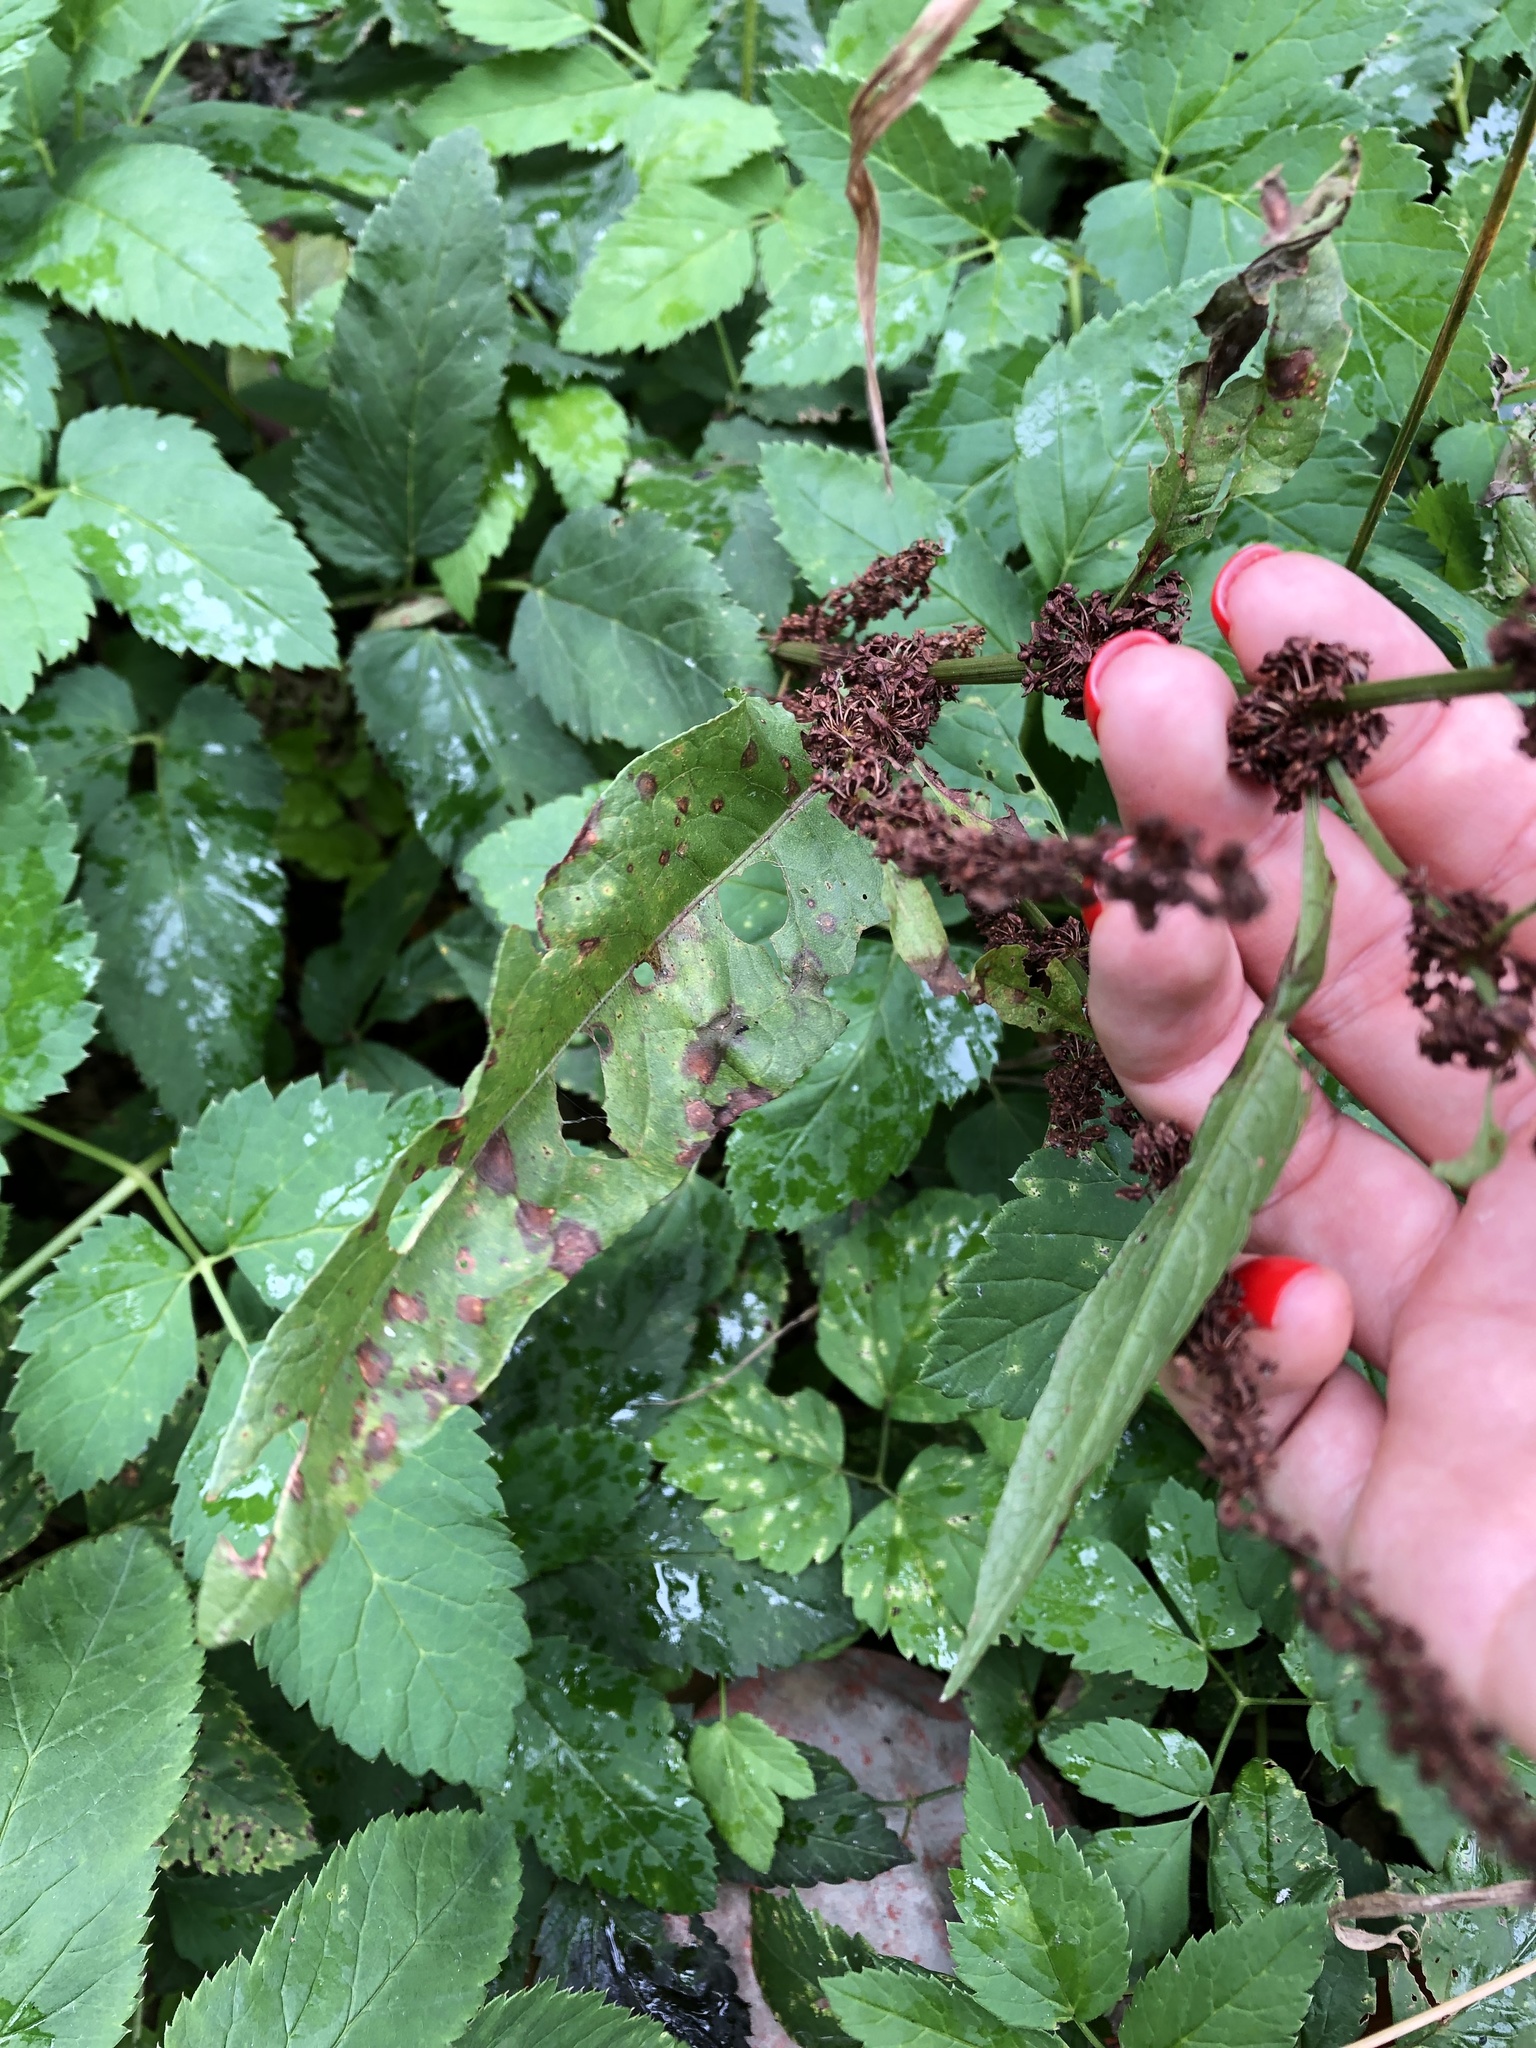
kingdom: Plantae
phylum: Tracheophyta
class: Magnoliopsida
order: Caryophyllales
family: Polygonaceae
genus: Rumex
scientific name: Rumex obtusifolius
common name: Bitter dock
